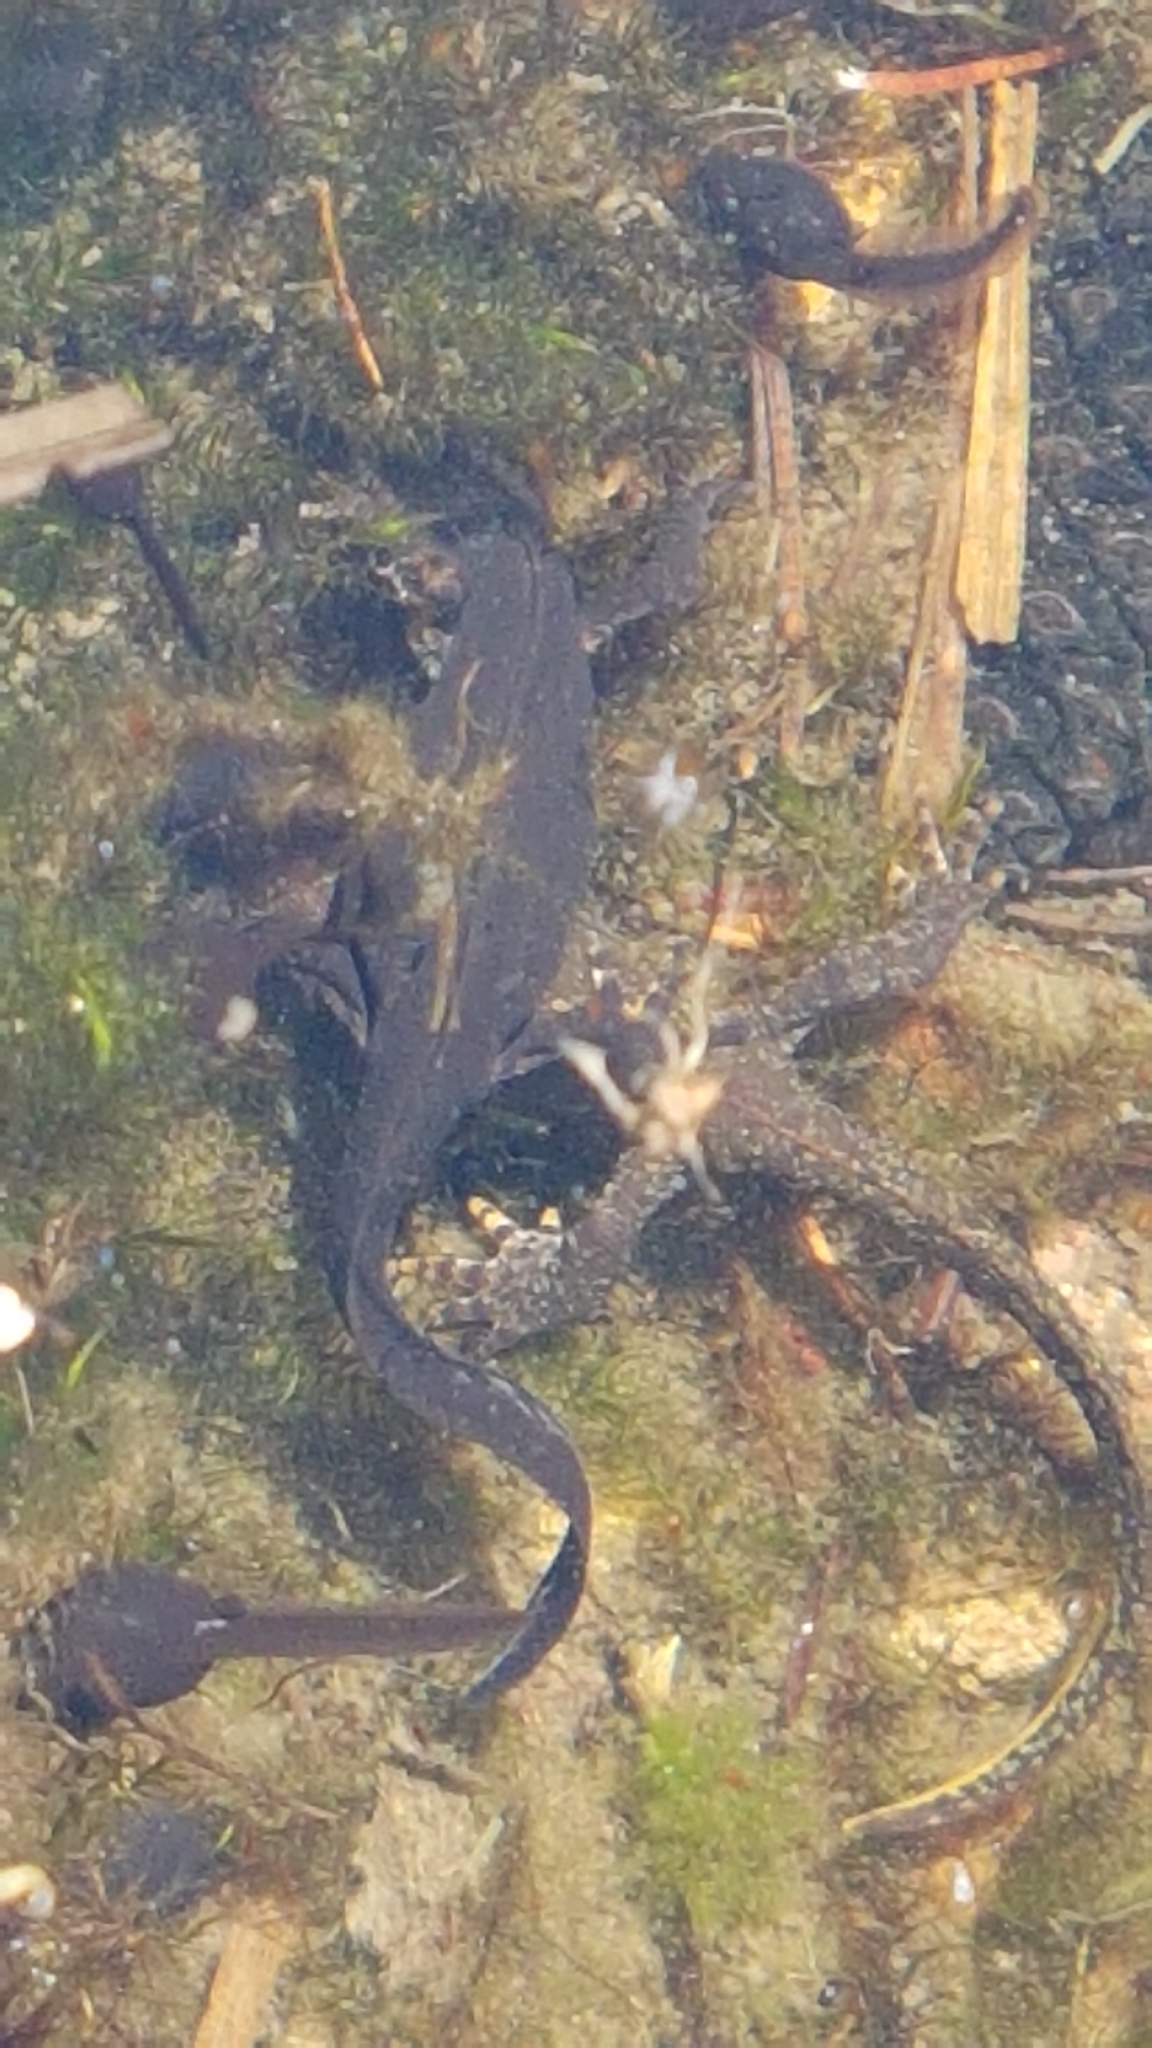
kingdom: Animalia
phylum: Chordata
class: Amphibia
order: Caudata
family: Salamandridae
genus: Ichthyosaura
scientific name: Ichthyosaura alpestris
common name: Alpine newt
